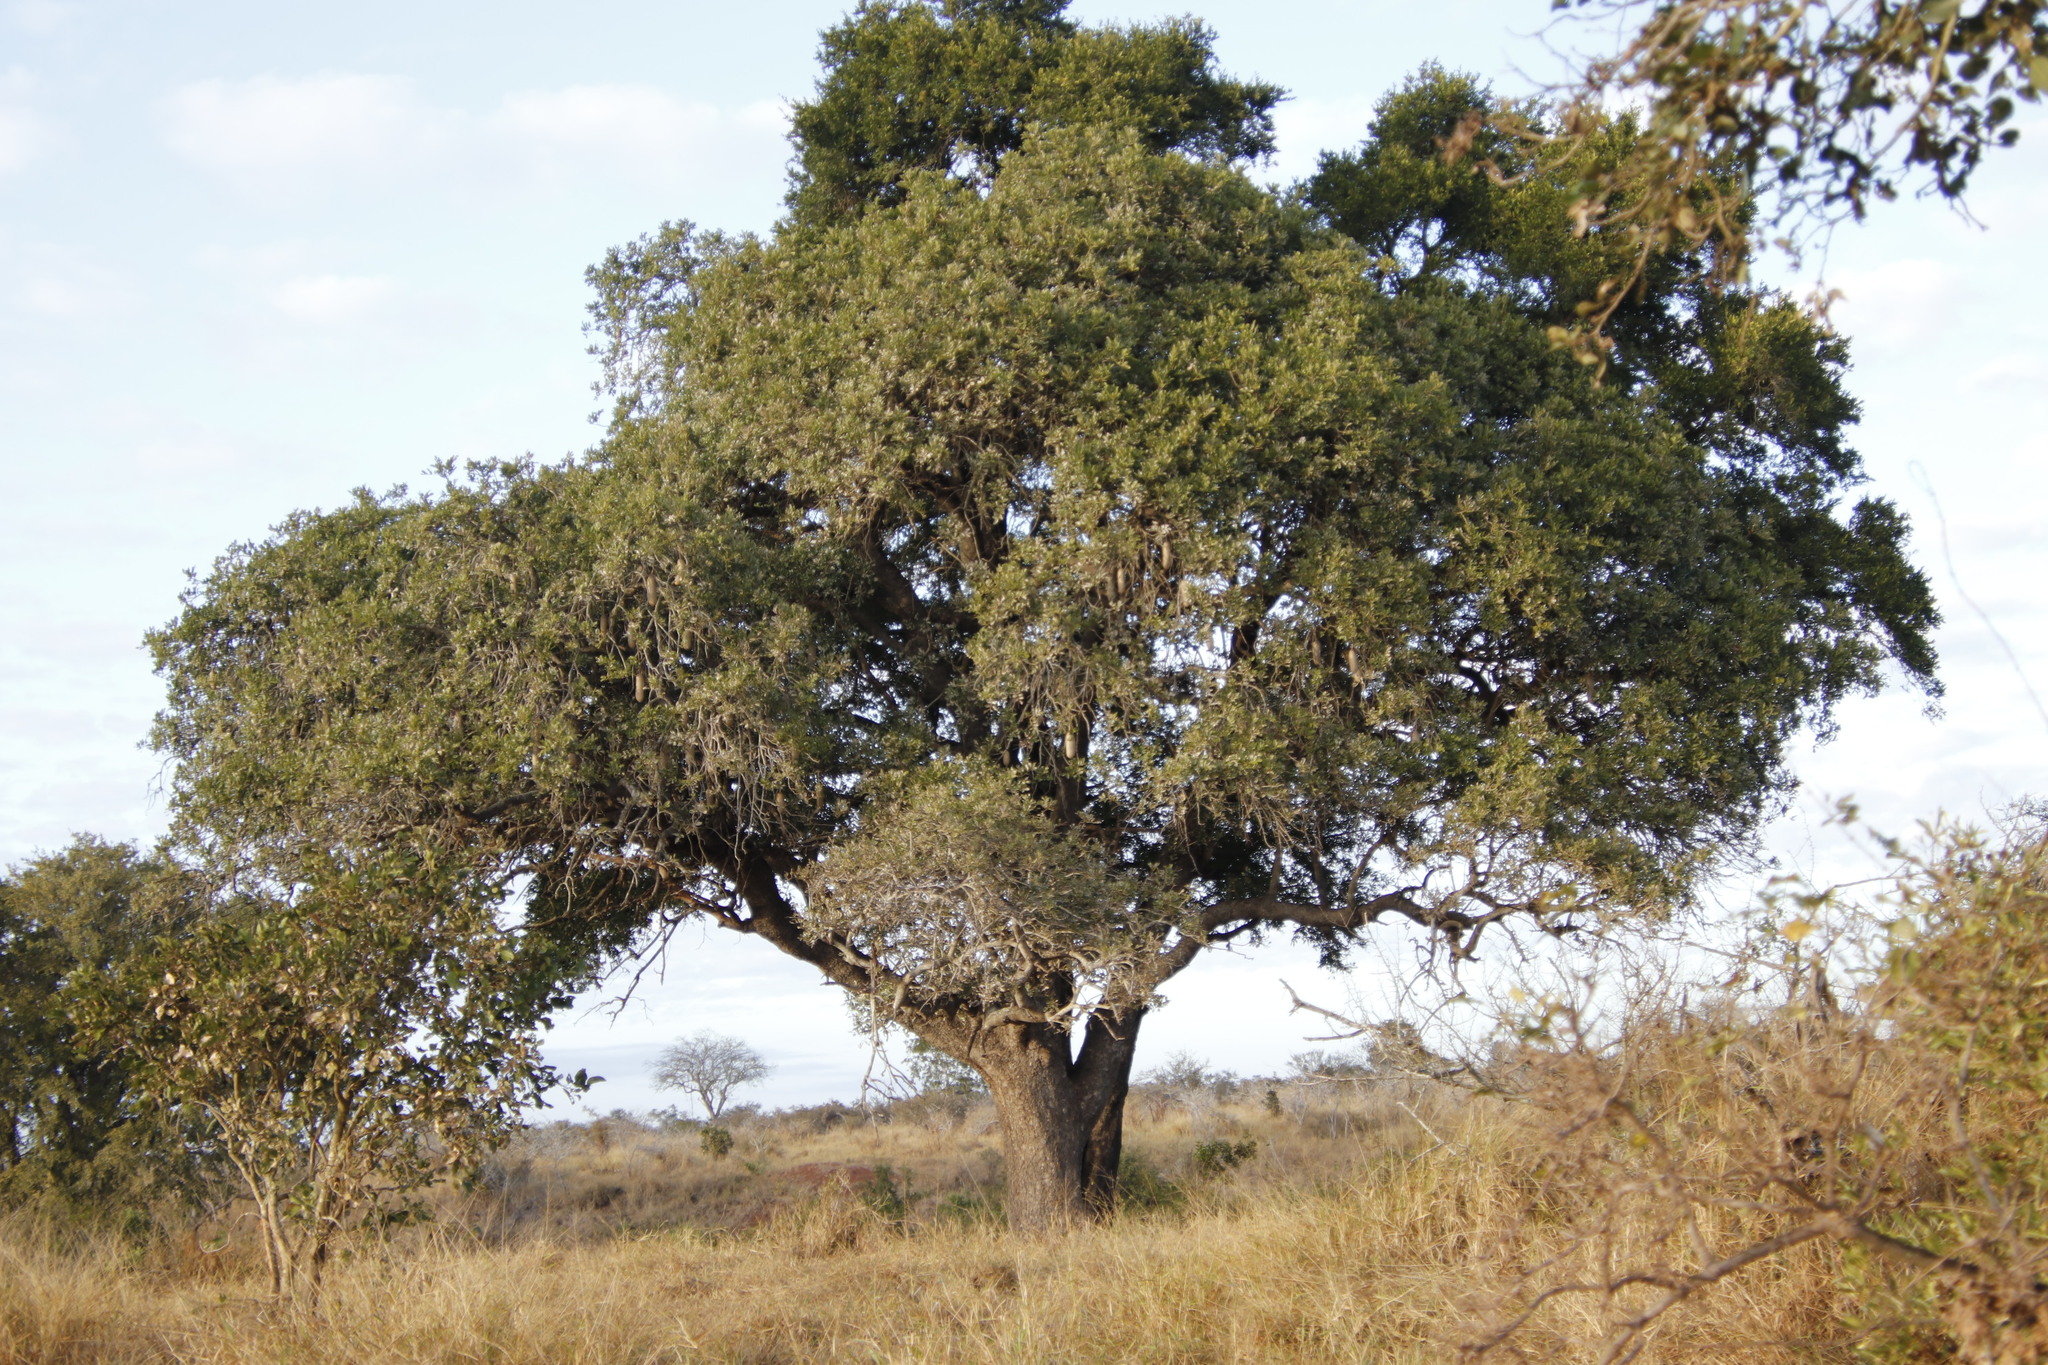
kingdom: Plantae
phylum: Tracheophyta
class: Magnoliopsida
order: Lamiales
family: Bignoniaceae
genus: Kigelia
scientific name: Kigelia africana
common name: Sausage tree
